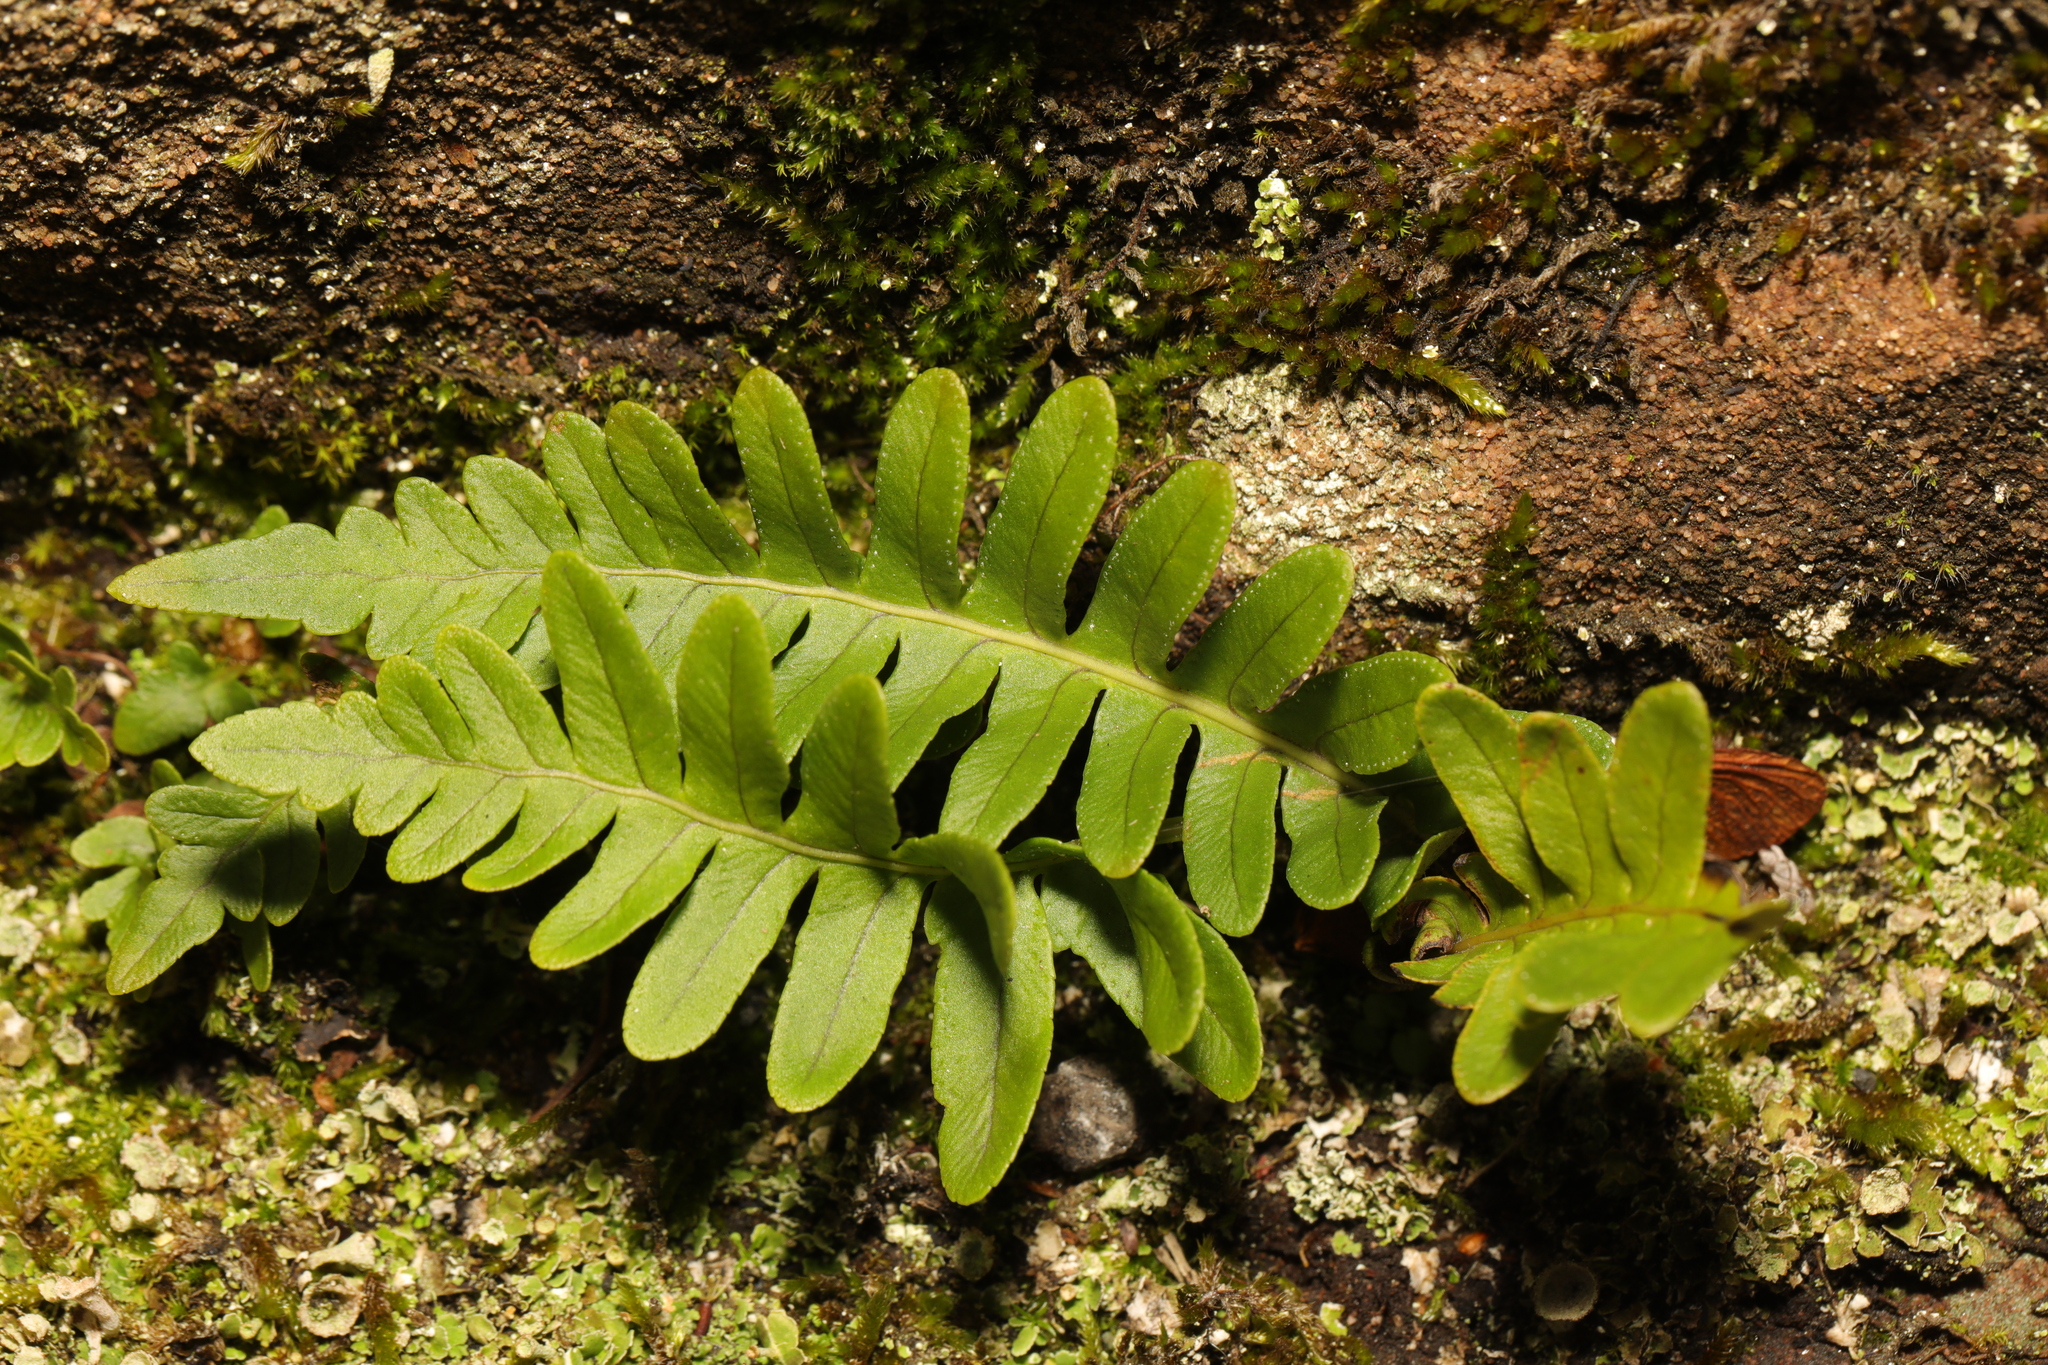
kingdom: Plantae
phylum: Tracheophyta
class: Polypodiopsida
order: Polypodiales
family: Polypodiaceae
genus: Polypodium
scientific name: Polypodium
